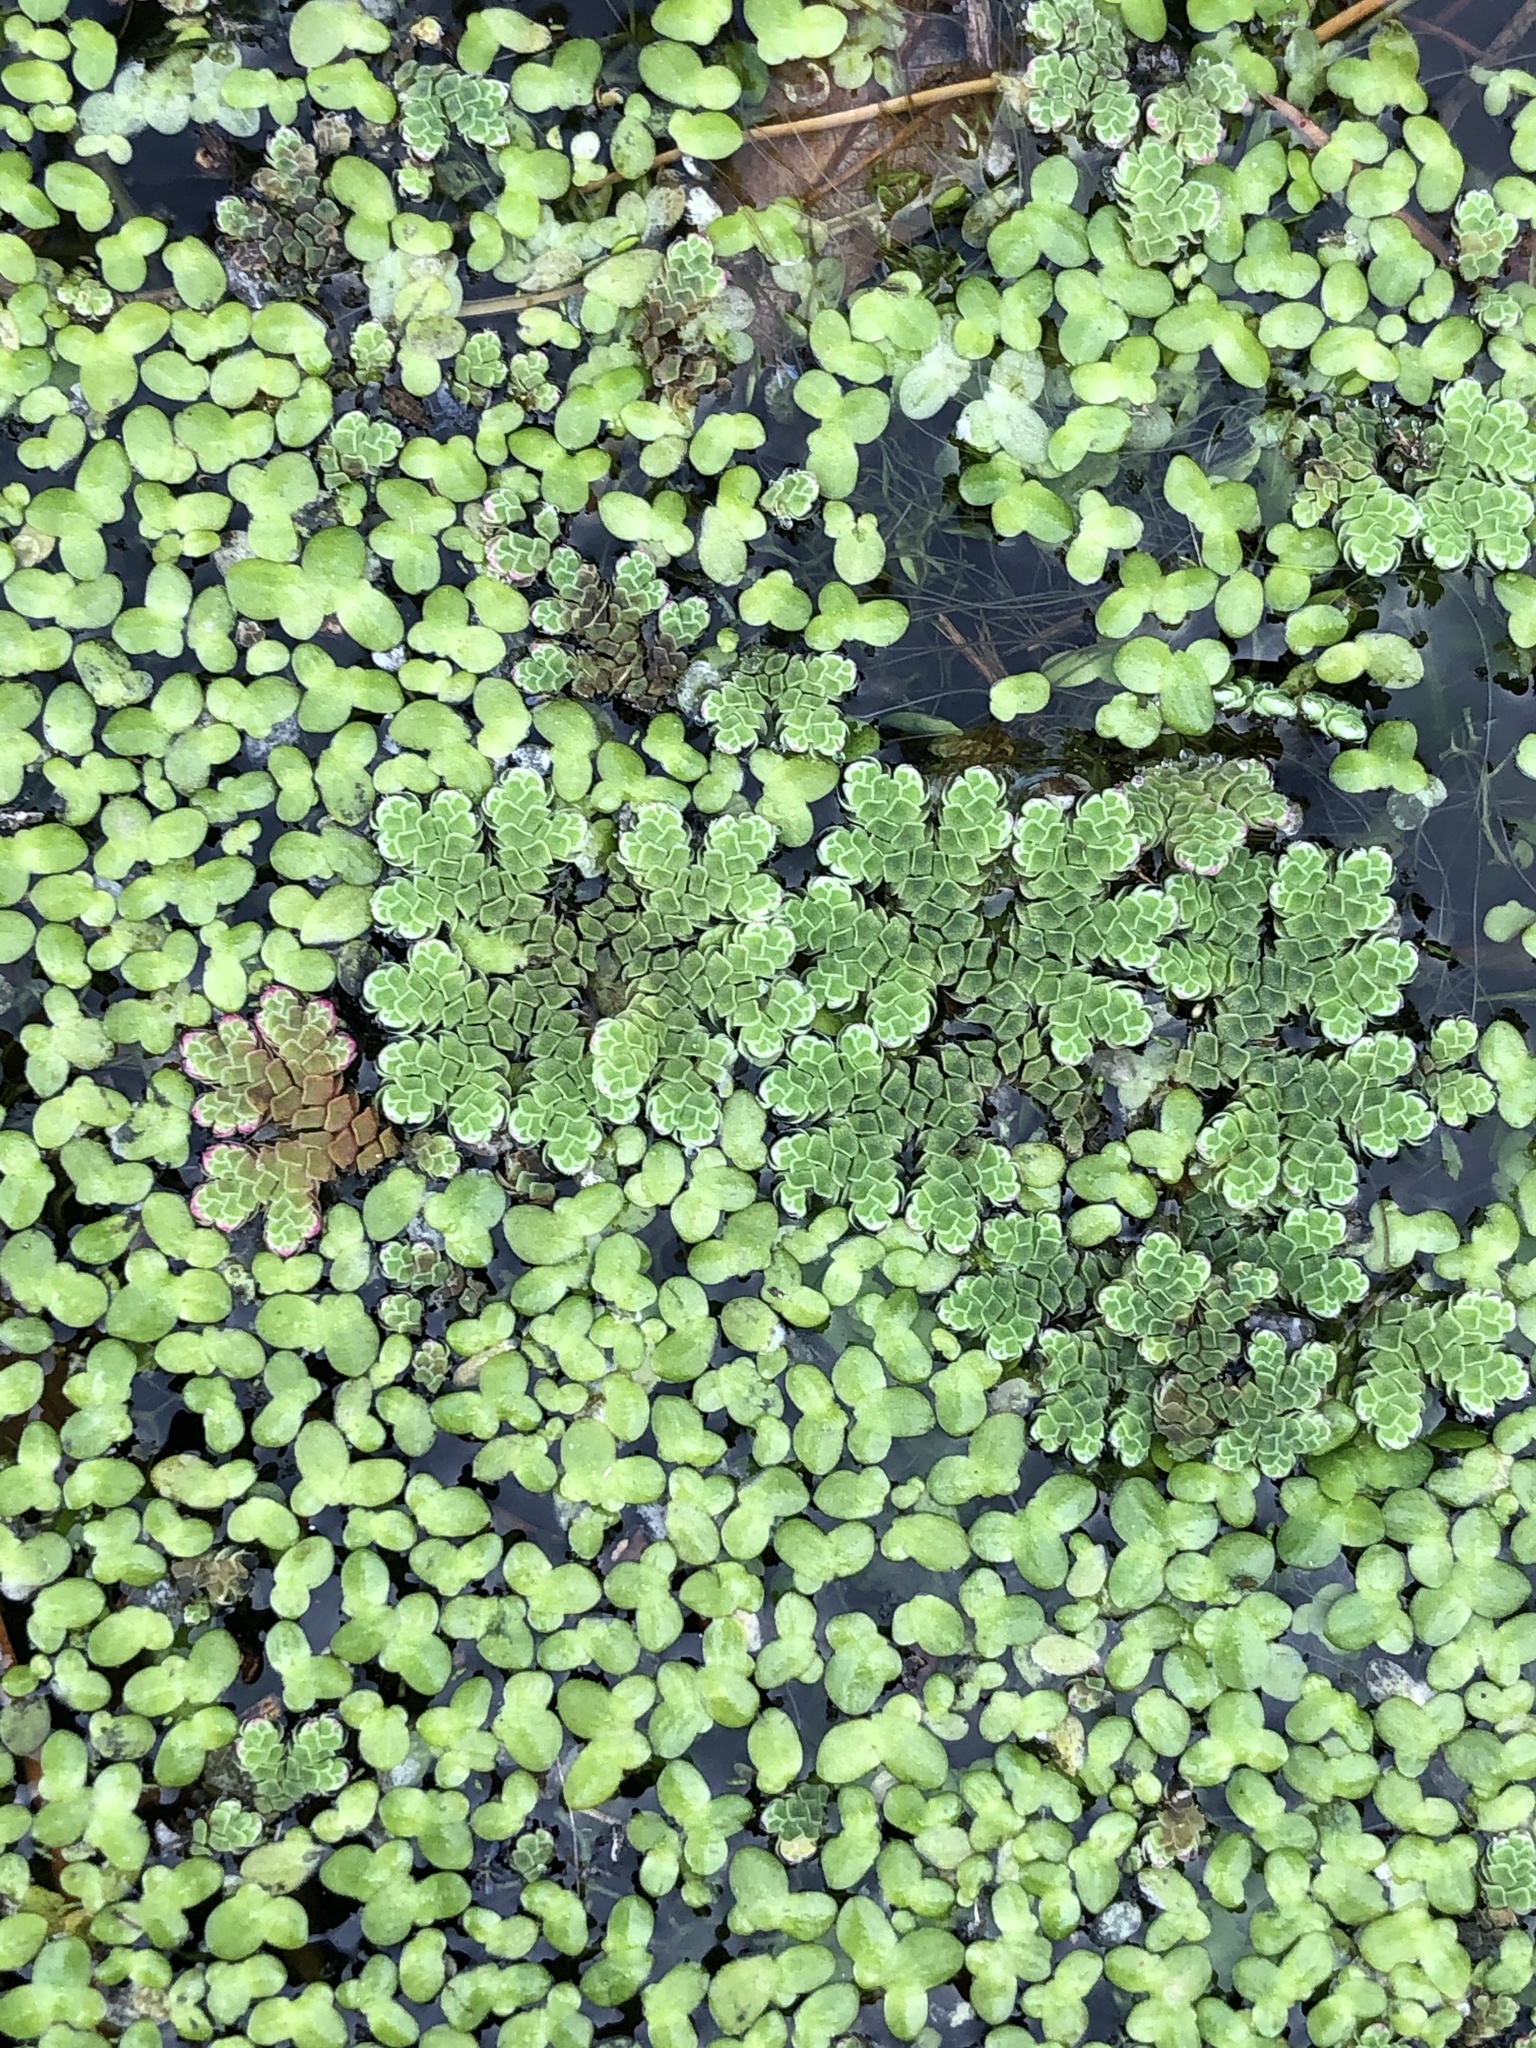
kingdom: Plantae
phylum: Tracheophyta
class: Polypodiopsida
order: Salviniales
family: Salviniaceae
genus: Azolla
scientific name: Azolla rubra
